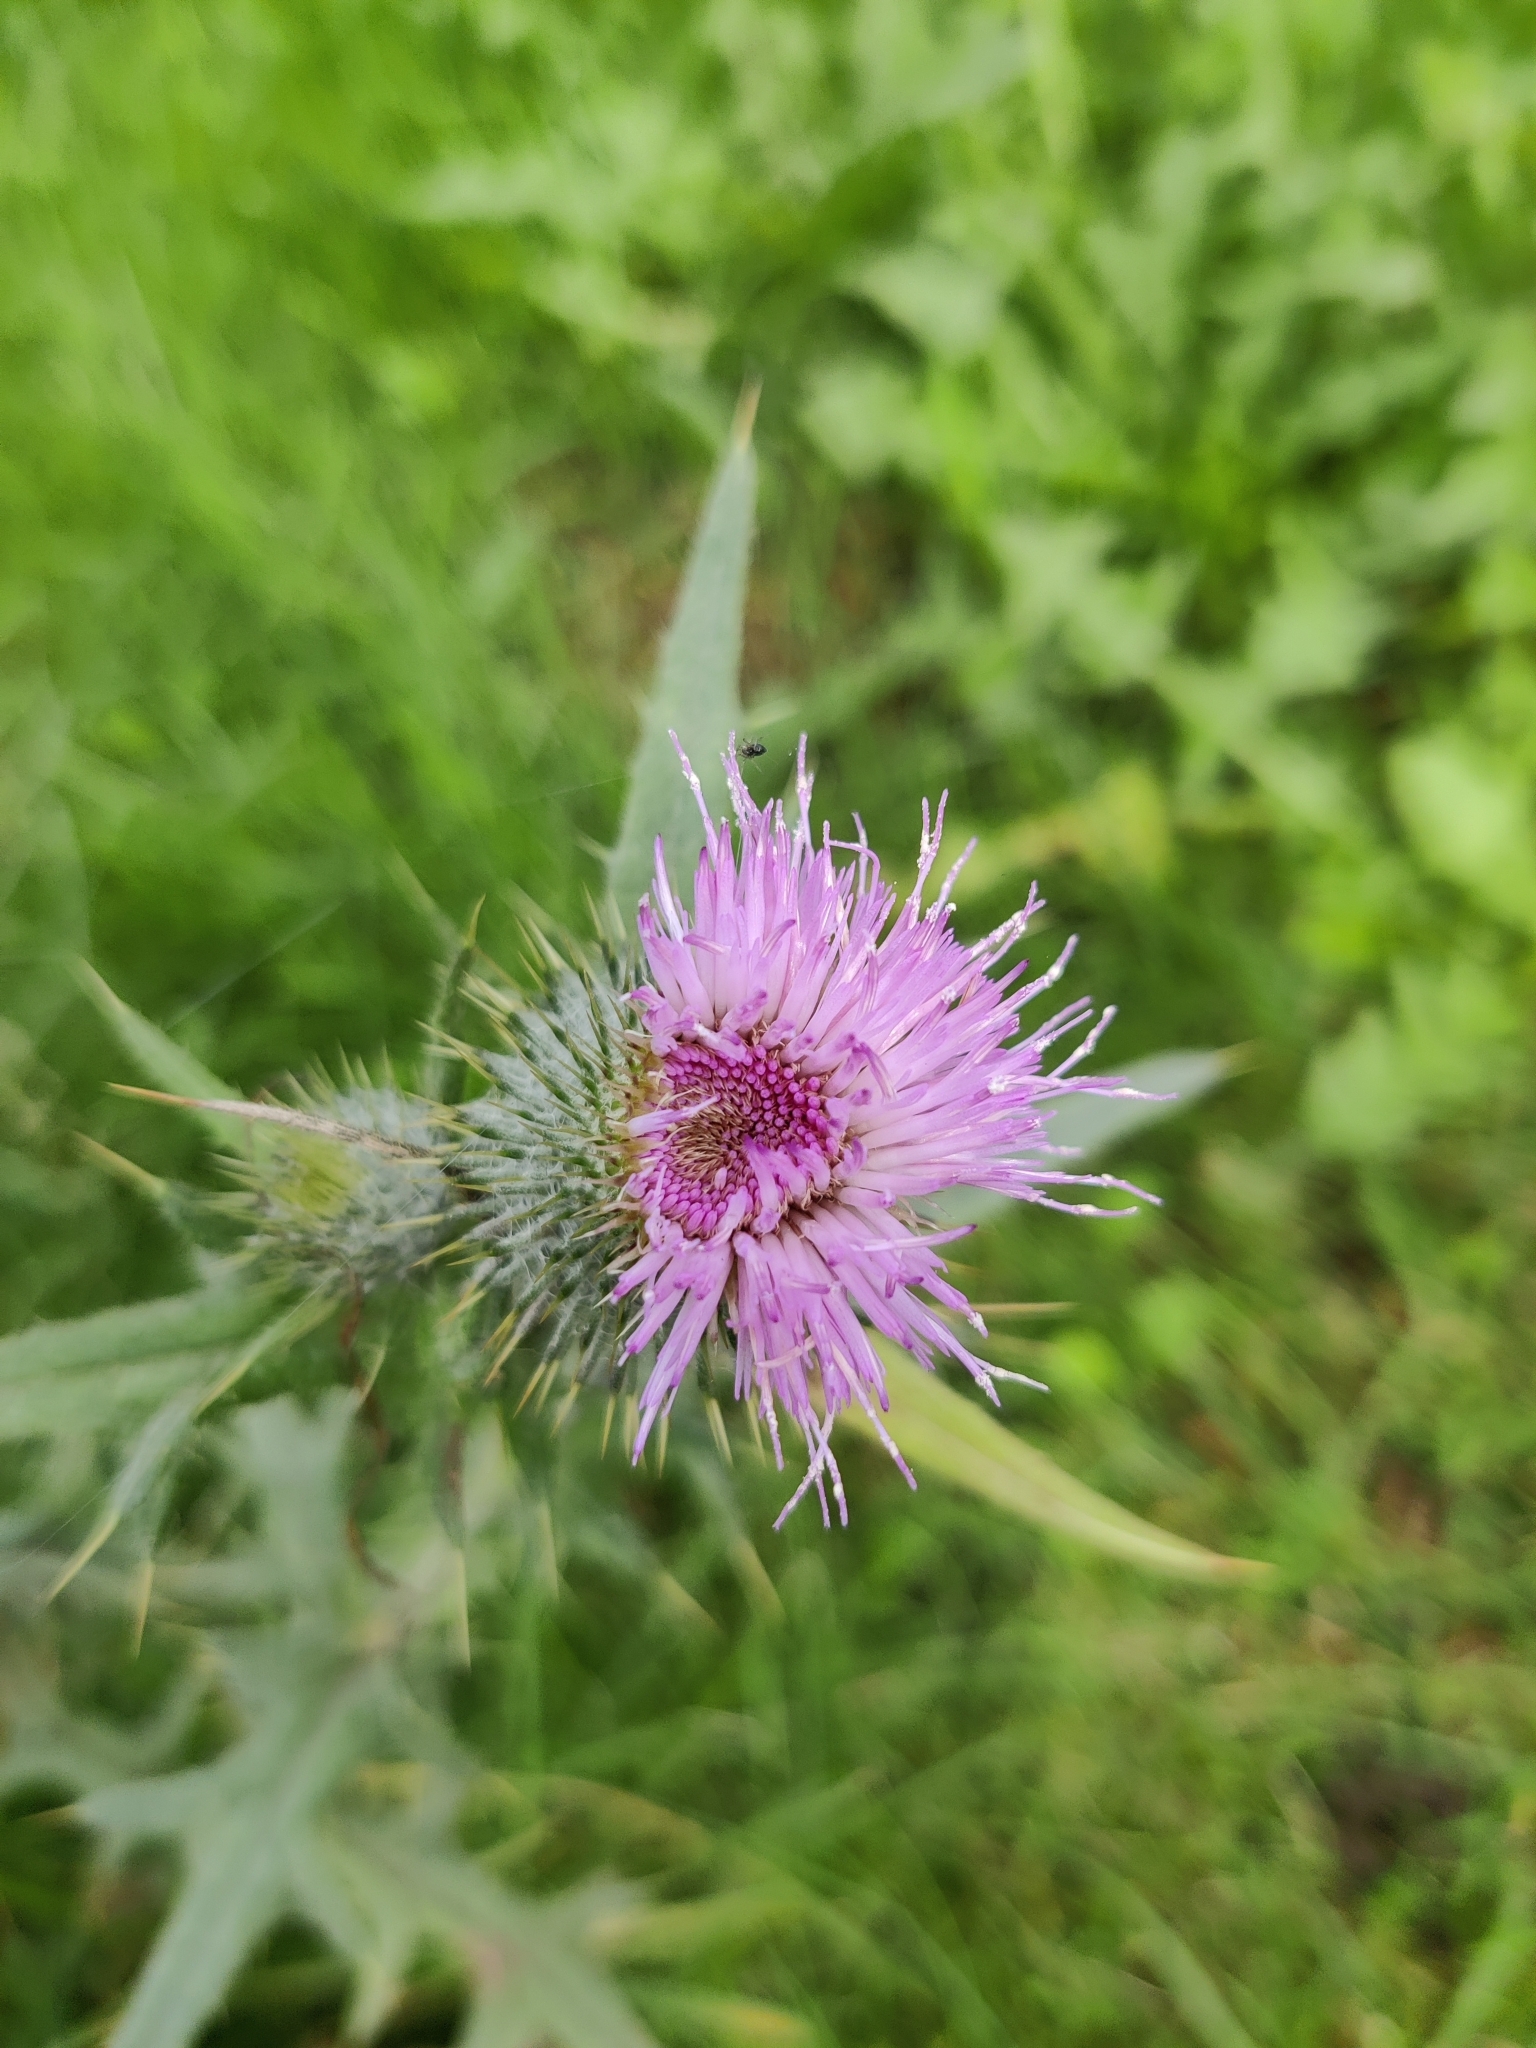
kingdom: Plantae
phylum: Tracheophyta
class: Magnoliopsida
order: Asterales
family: Asteraceae
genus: Cirsium
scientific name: Cirsium vulgare
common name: Bull thistle
